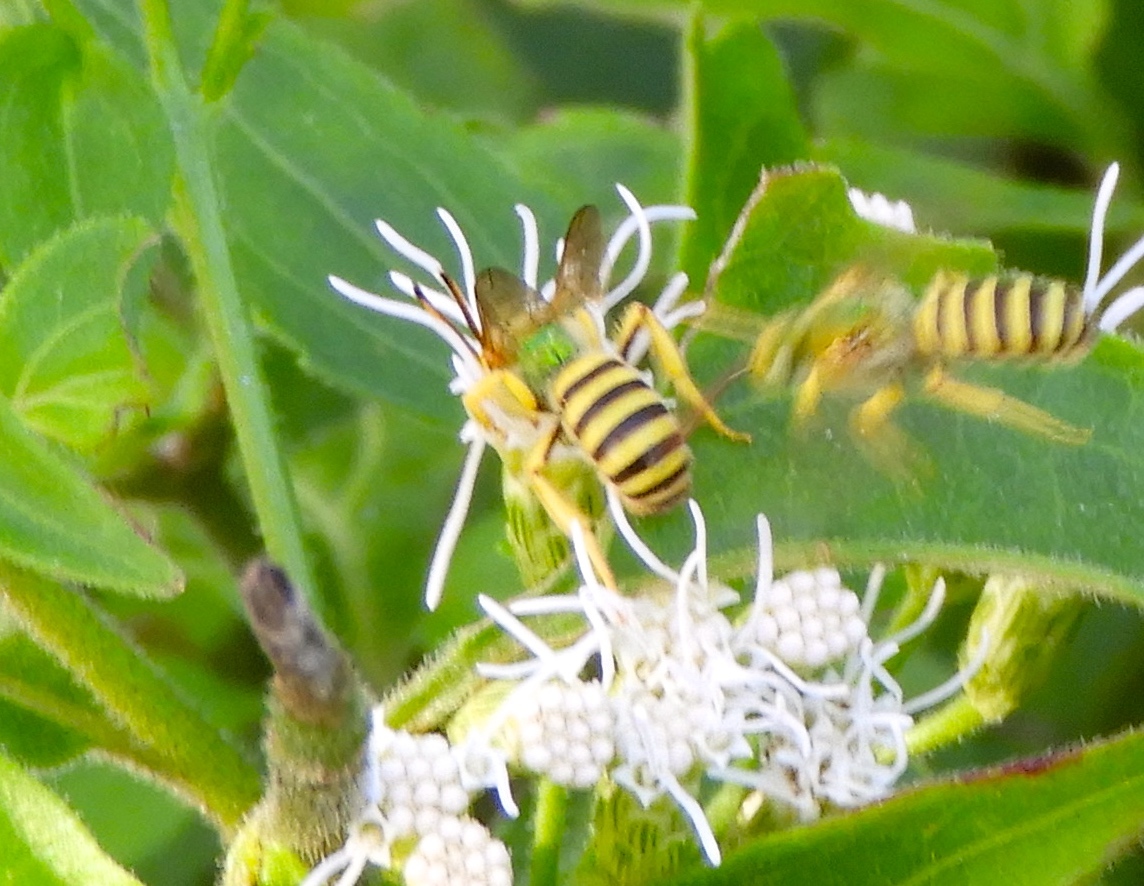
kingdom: Animalia
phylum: Arthropoda
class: Insecta
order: Hymenoptera
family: Halictidae
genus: Agapostemon
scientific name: Agapostemon
